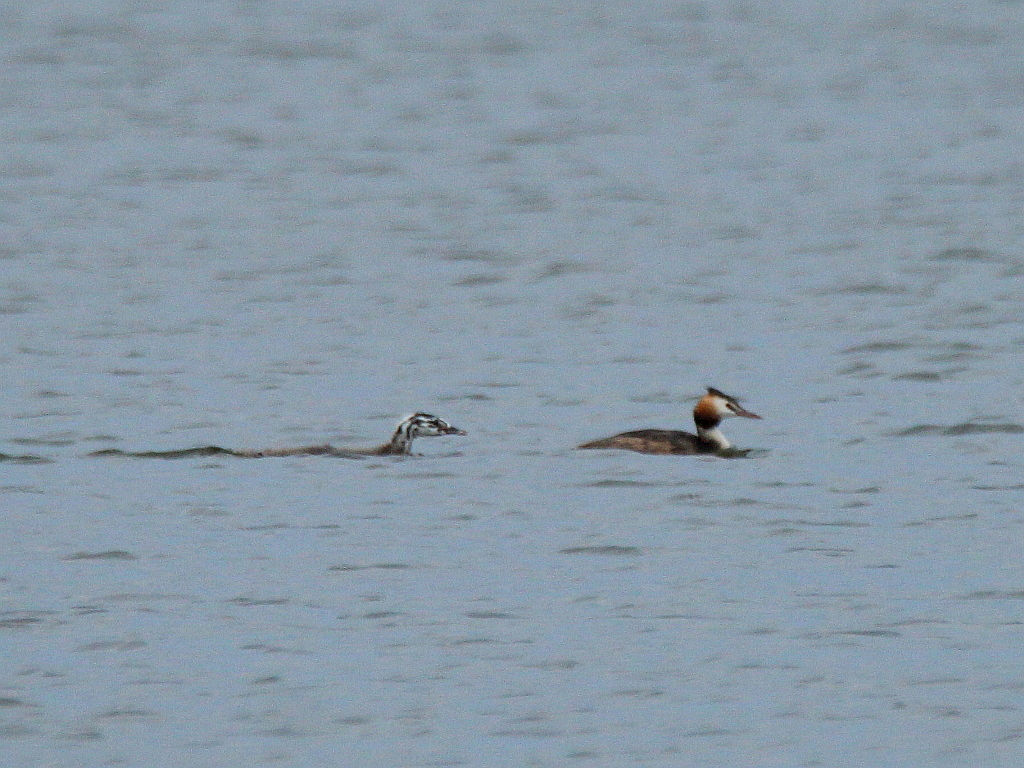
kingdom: Animalia
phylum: Chordata
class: Aves
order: Podicipediformes
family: Podicipedidae
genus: Podiceps
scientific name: Podiceps cristatus
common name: Great crested grebe
